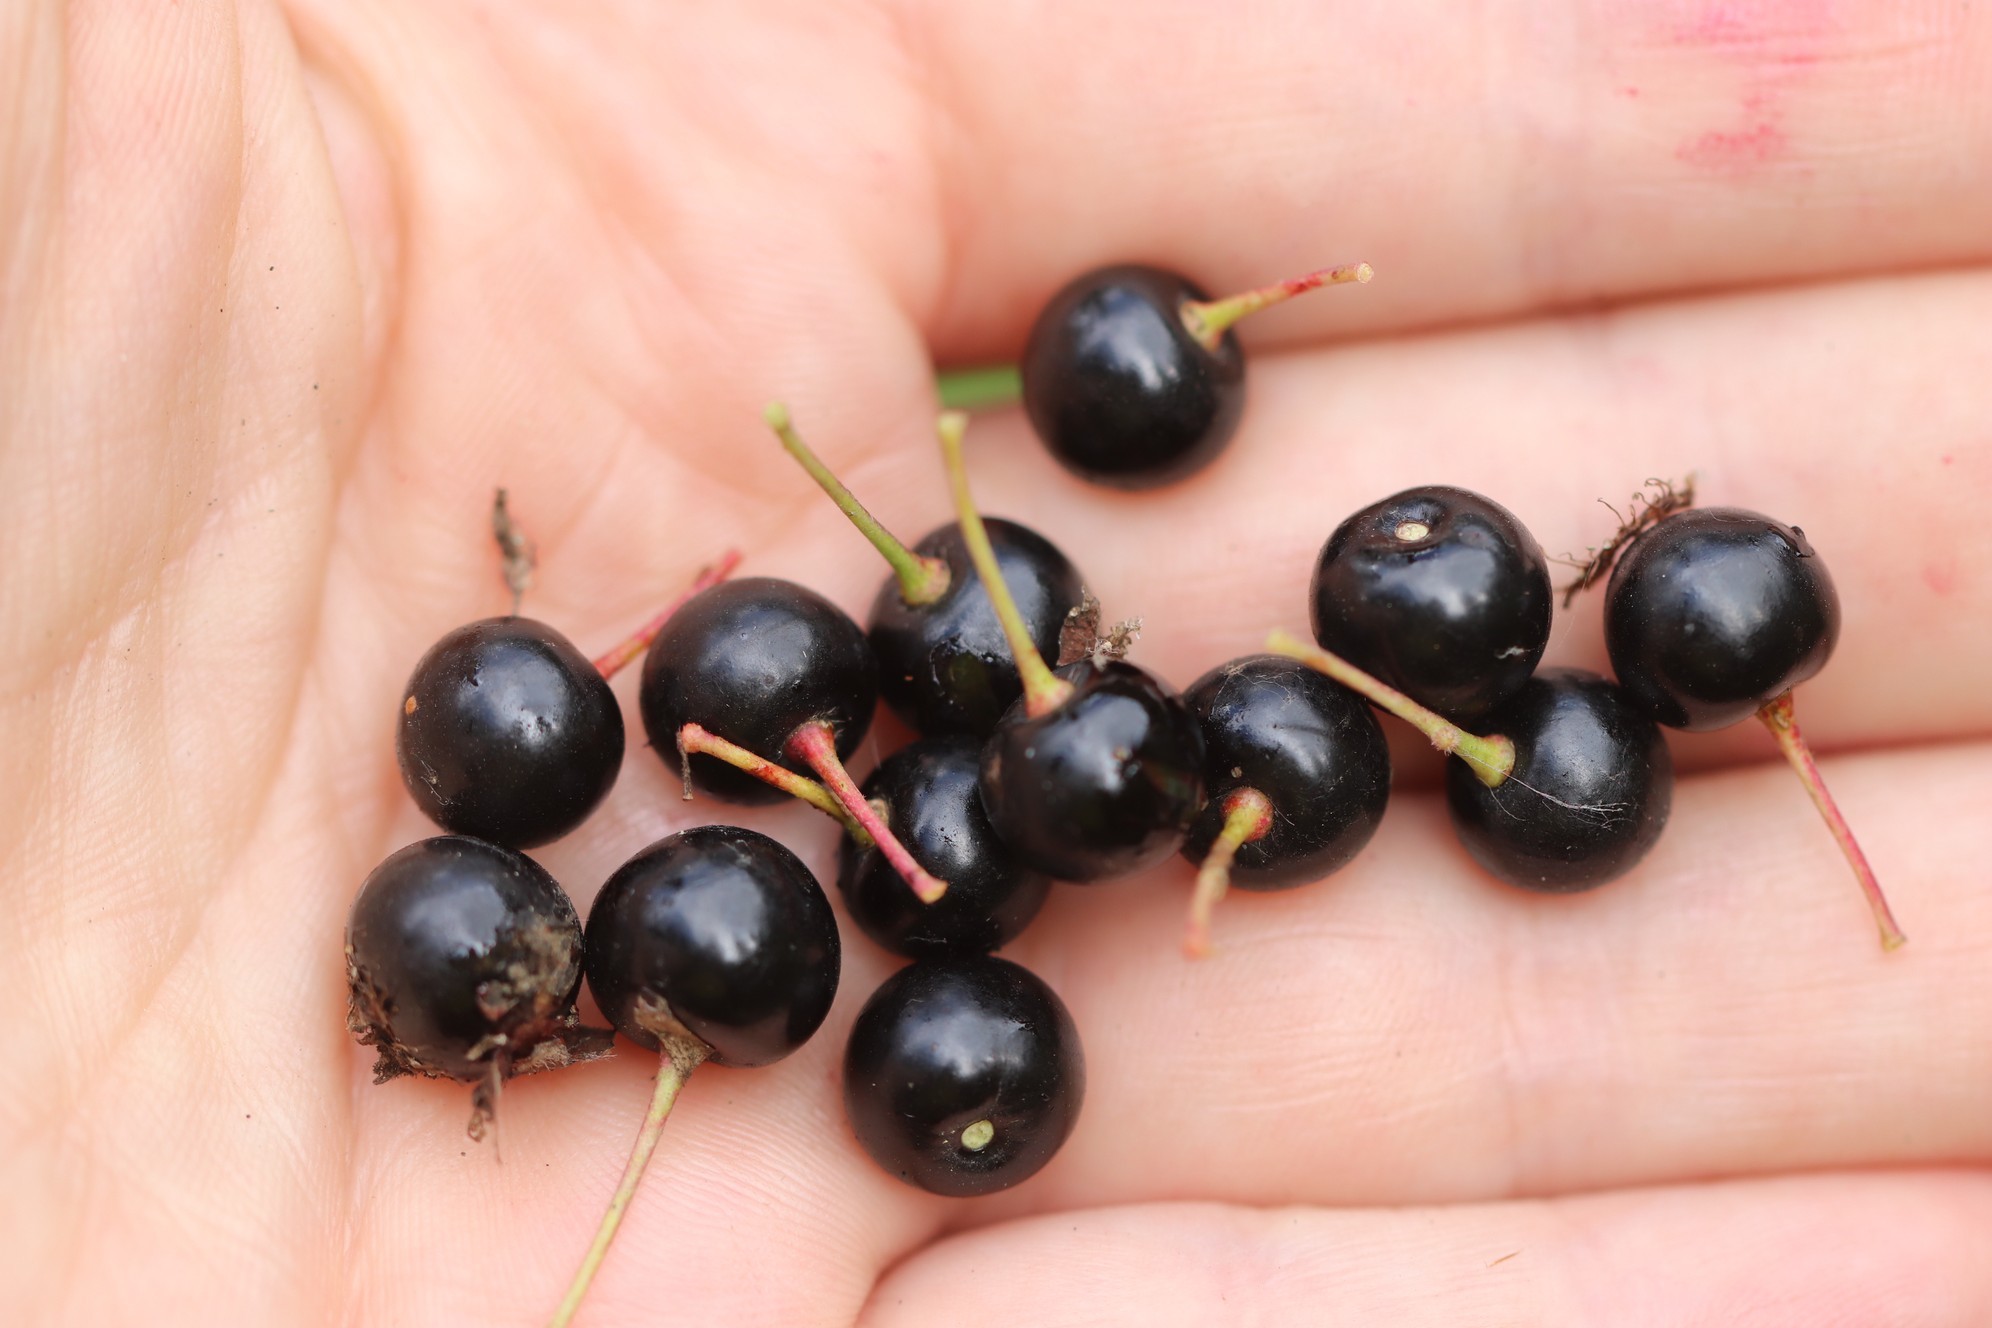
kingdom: Plantae
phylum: Tracheophyta
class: Magnoliopsida
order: Rosales
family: Rosaceae
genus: Prunus
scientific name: Prunus padus
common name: Bird cherry
